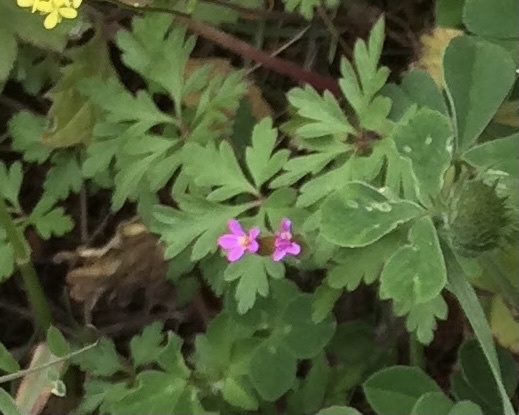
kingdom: Plantae
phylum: Tracheophyta
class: Magnoliopsida
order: Geraniales
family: Geraniaceae
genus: Geranium
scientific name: Geranium purpureum
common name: Little-robin
